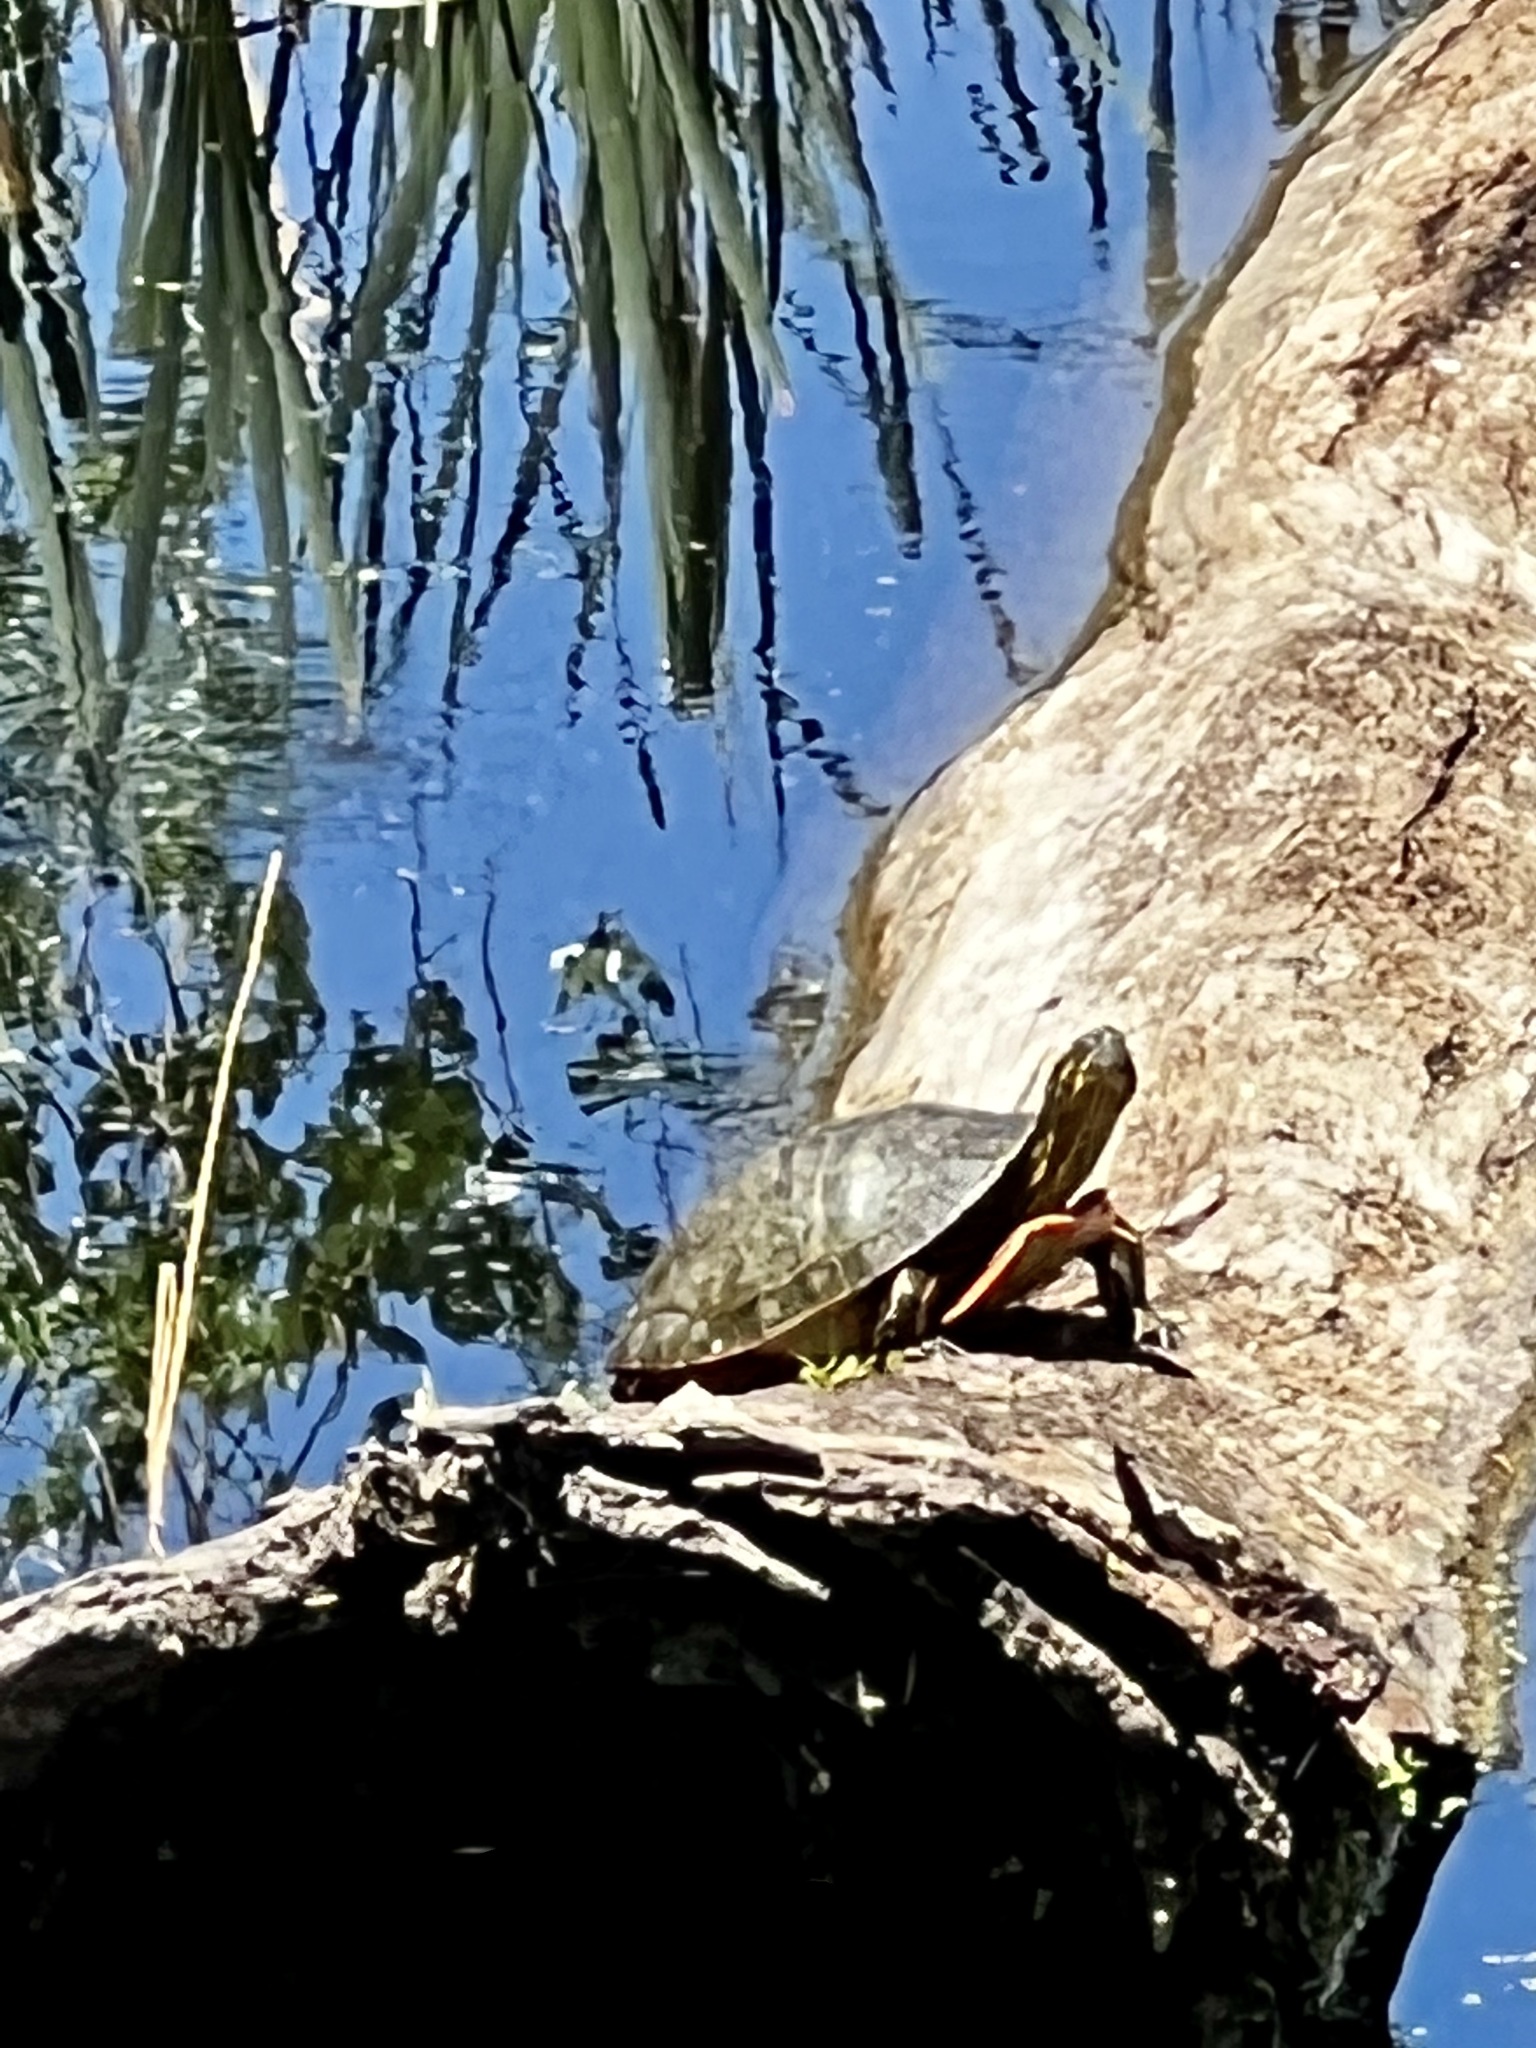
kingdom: Animalia
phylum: Chordata
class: Testudines
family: Emydidae
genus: Chrysemys
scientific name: Chrysemys picta
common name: Painted turtle
